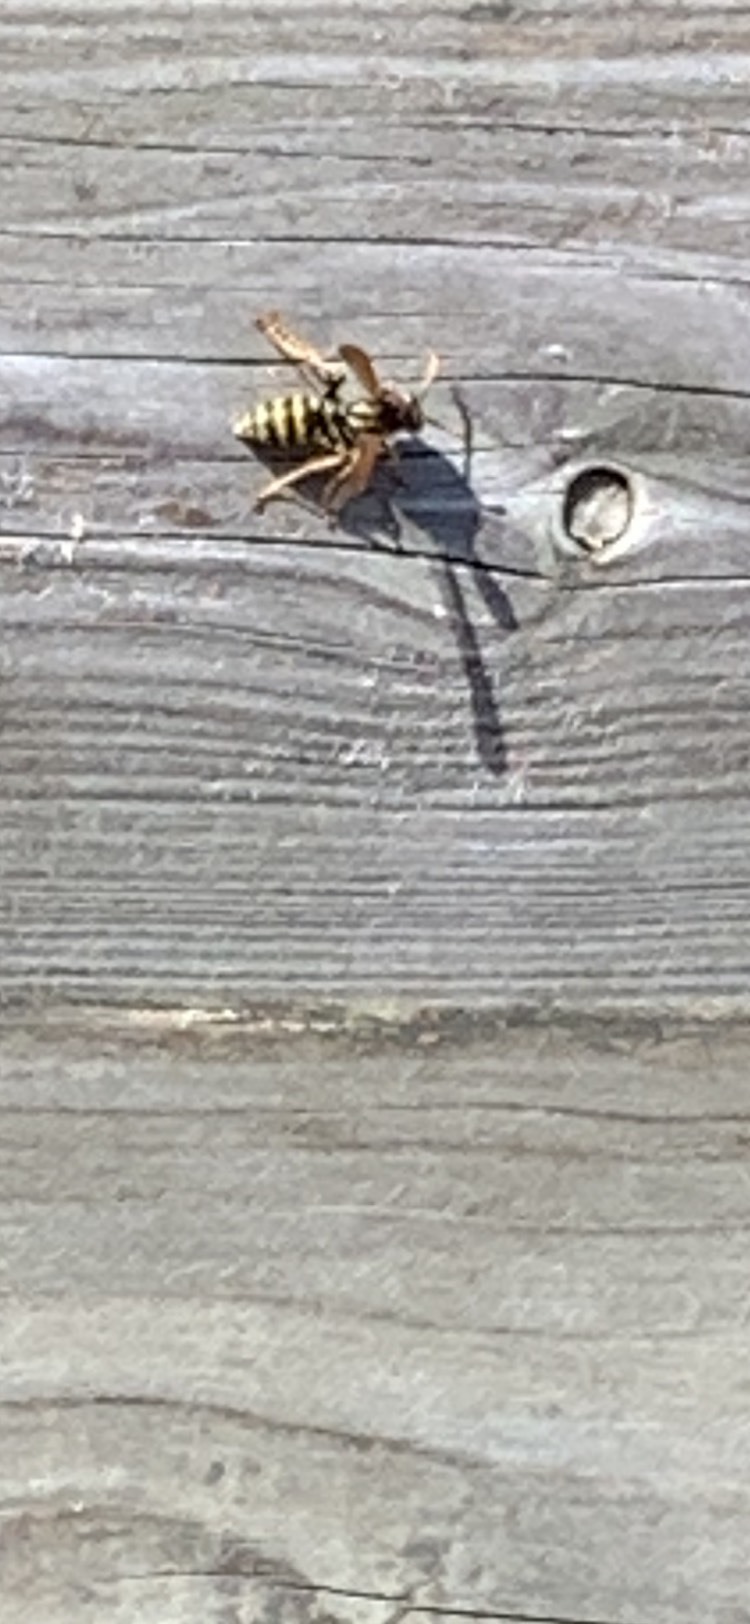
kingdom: Animalia
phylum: Arthropoda
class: Insecta
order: Hymenoptera
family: Eumenidae
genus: Polistes
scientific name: Polistes dominula
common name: Paper wasp
